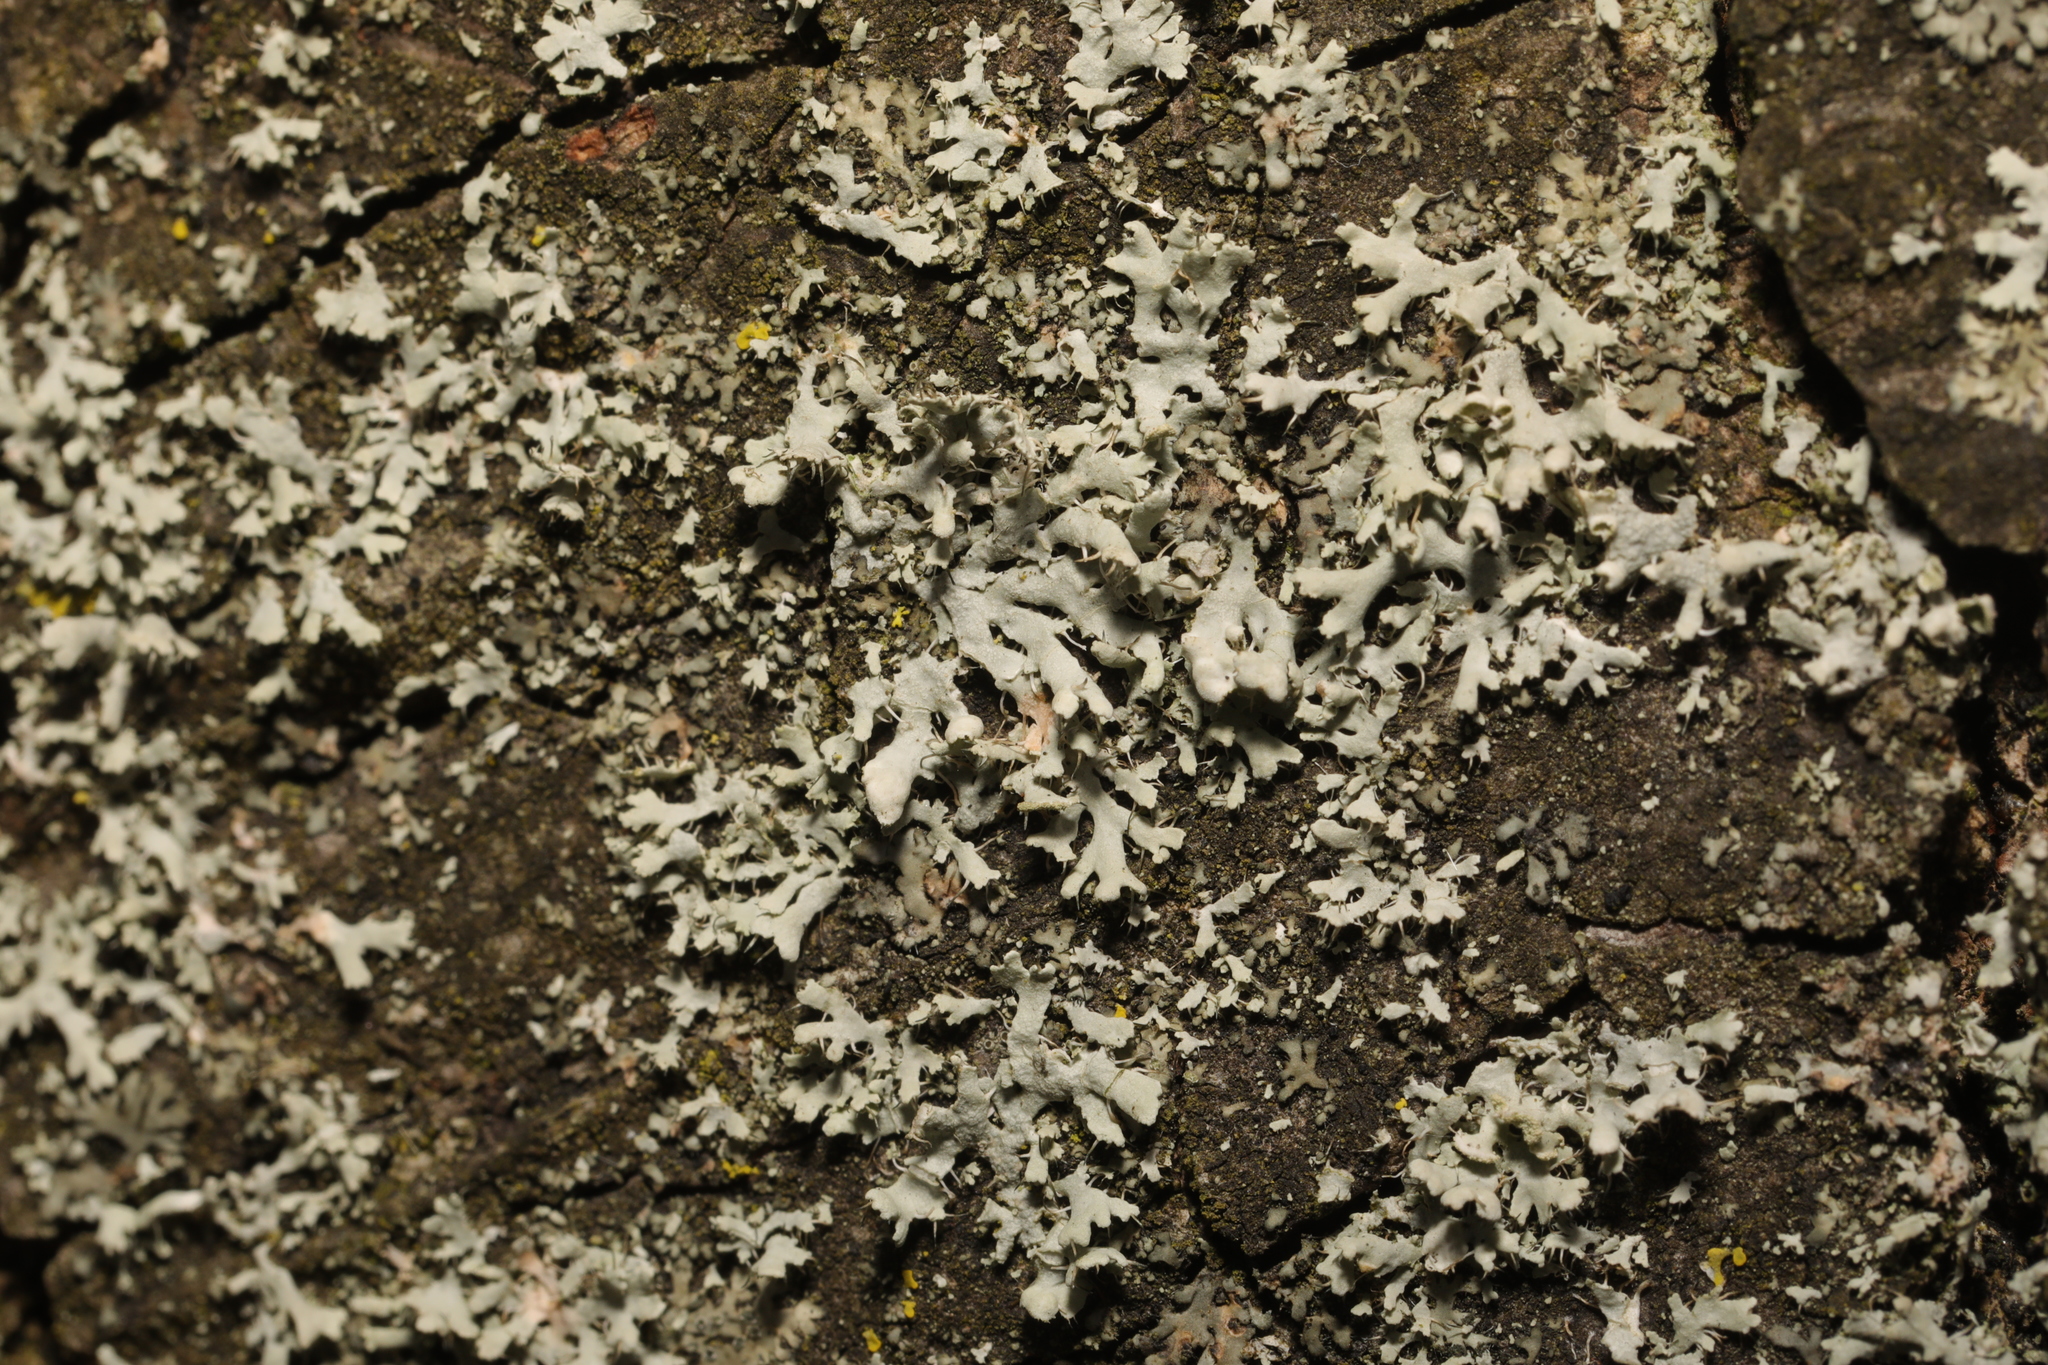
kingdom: Fungi
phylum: Ascomycota
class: Lecanoromycetes
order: Caliciales
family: Physciaceae
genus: Physcia
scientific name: Physcia adscendens
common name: Hooded rosette lichen
